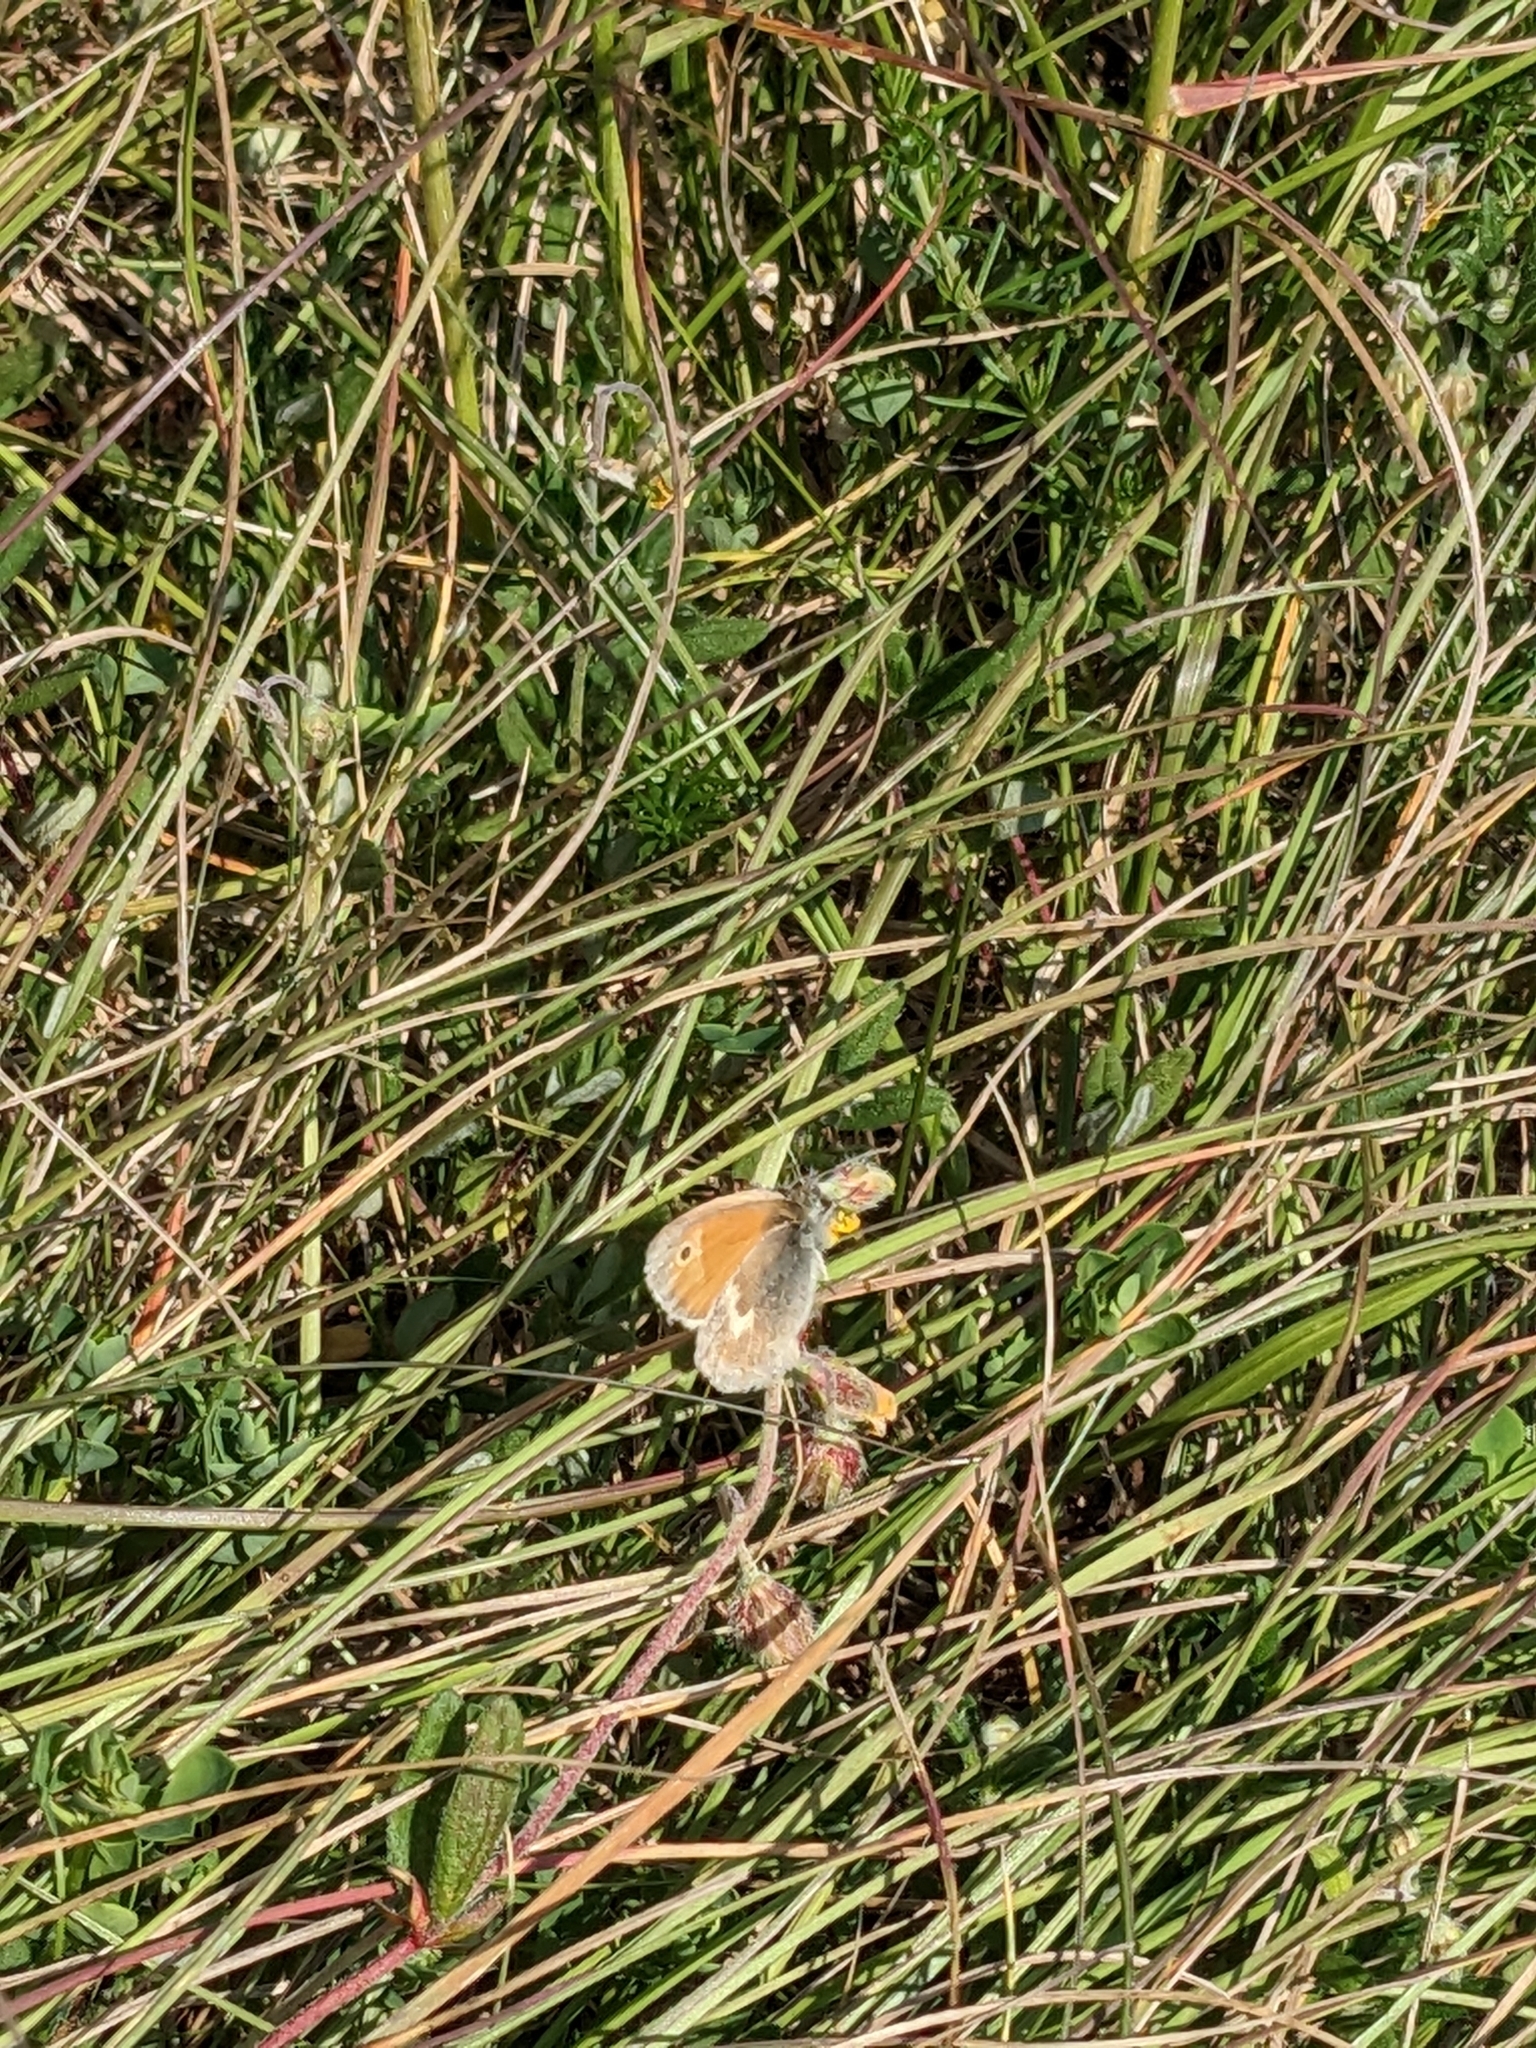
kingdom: Animalia
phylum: Arthropoda
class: Insecta
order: Lepidoptera
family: Nymphalidae
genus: Coenonympha
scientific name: Coenonympha pamphilus
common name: Small heath
